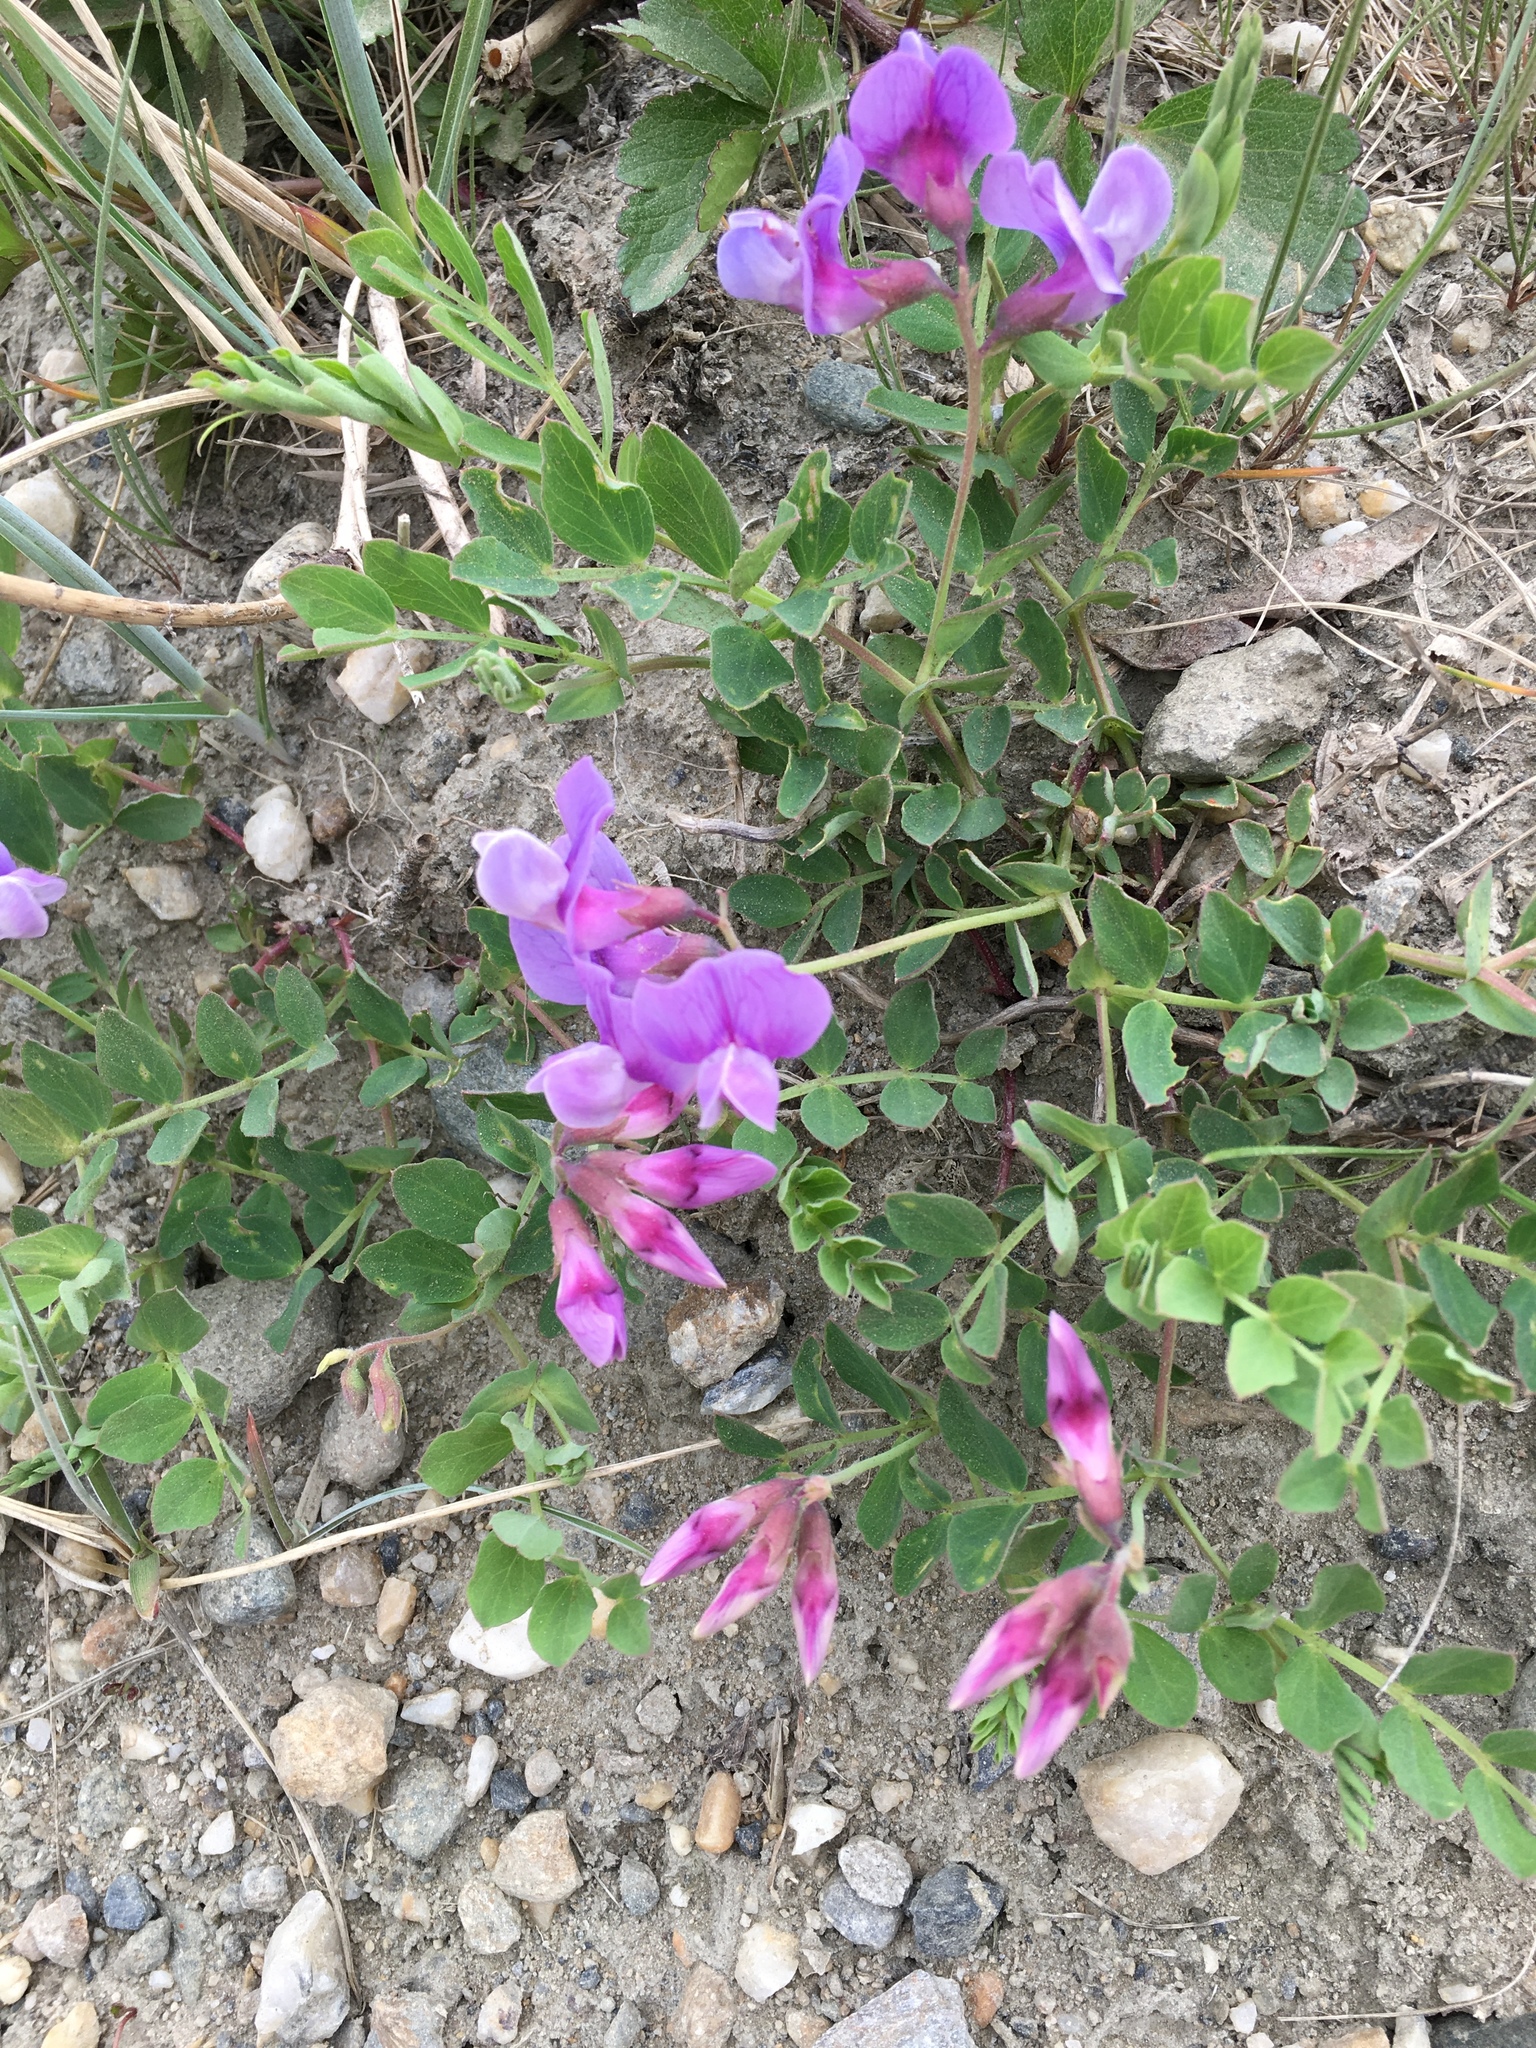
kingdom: Plantae
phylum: Tracheophyta
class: Magnoliopsida
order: Fabales
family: Fabaceae
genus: Lathyrus
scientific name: Lathyrus japonicus
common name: Sea pea
